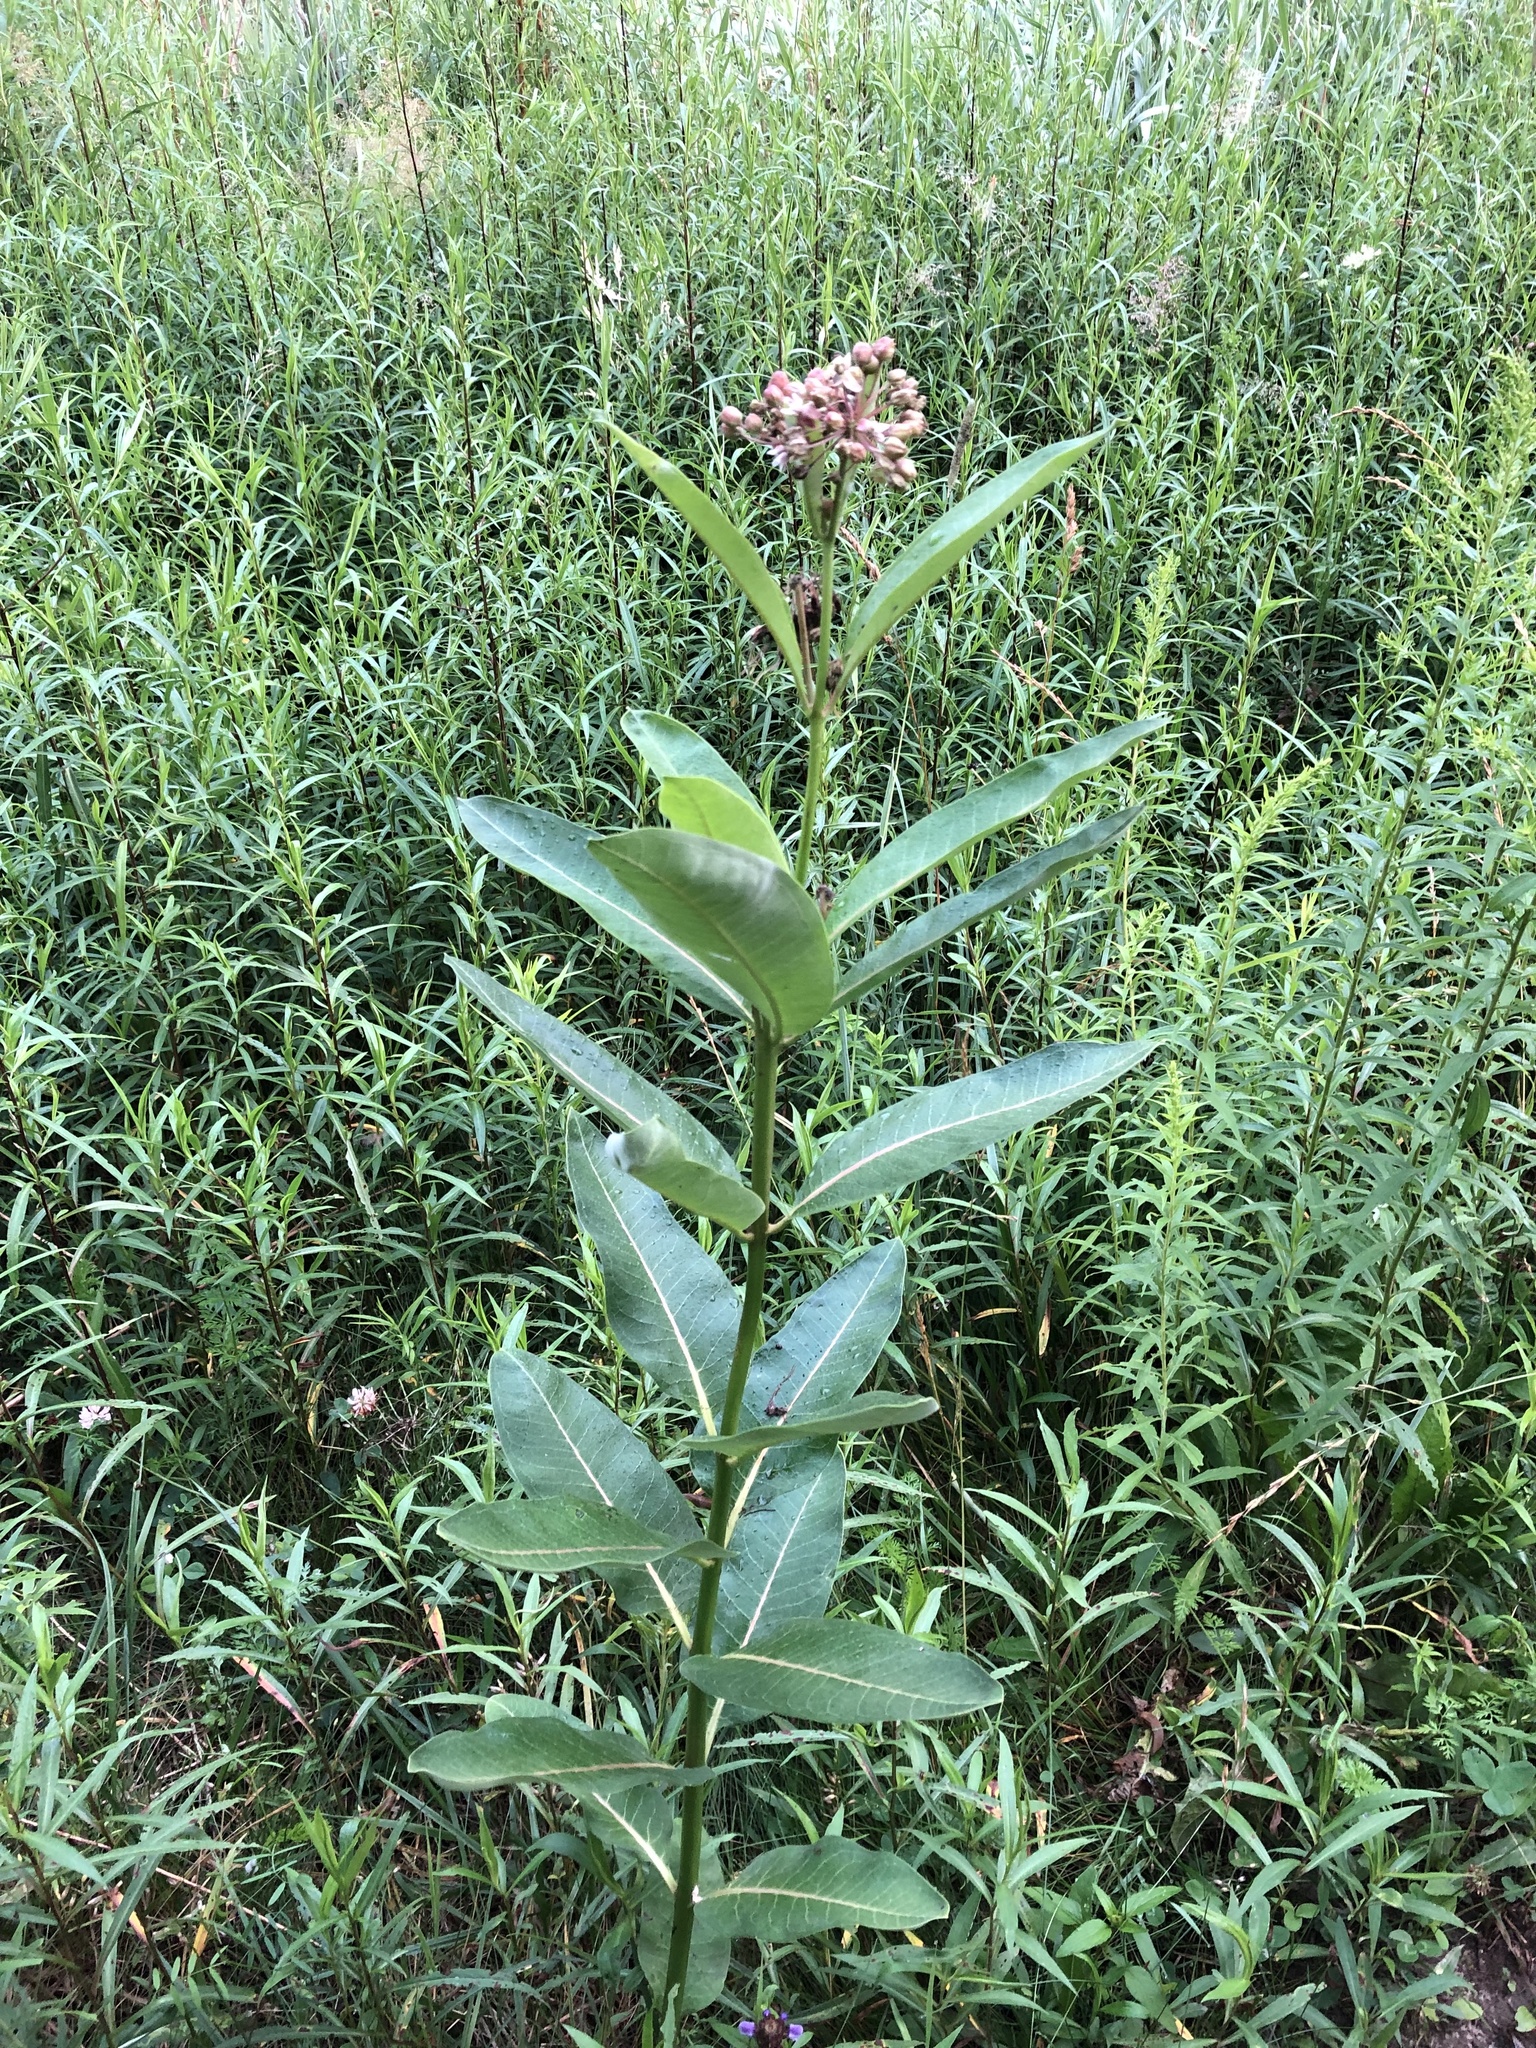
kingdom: Plantae
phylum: Tracheophyta
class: Magnoliopsida
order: Gentianales
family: Apocynaceae
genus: Asclepias
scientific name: Asclepias syriaca
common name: Common milkweed
